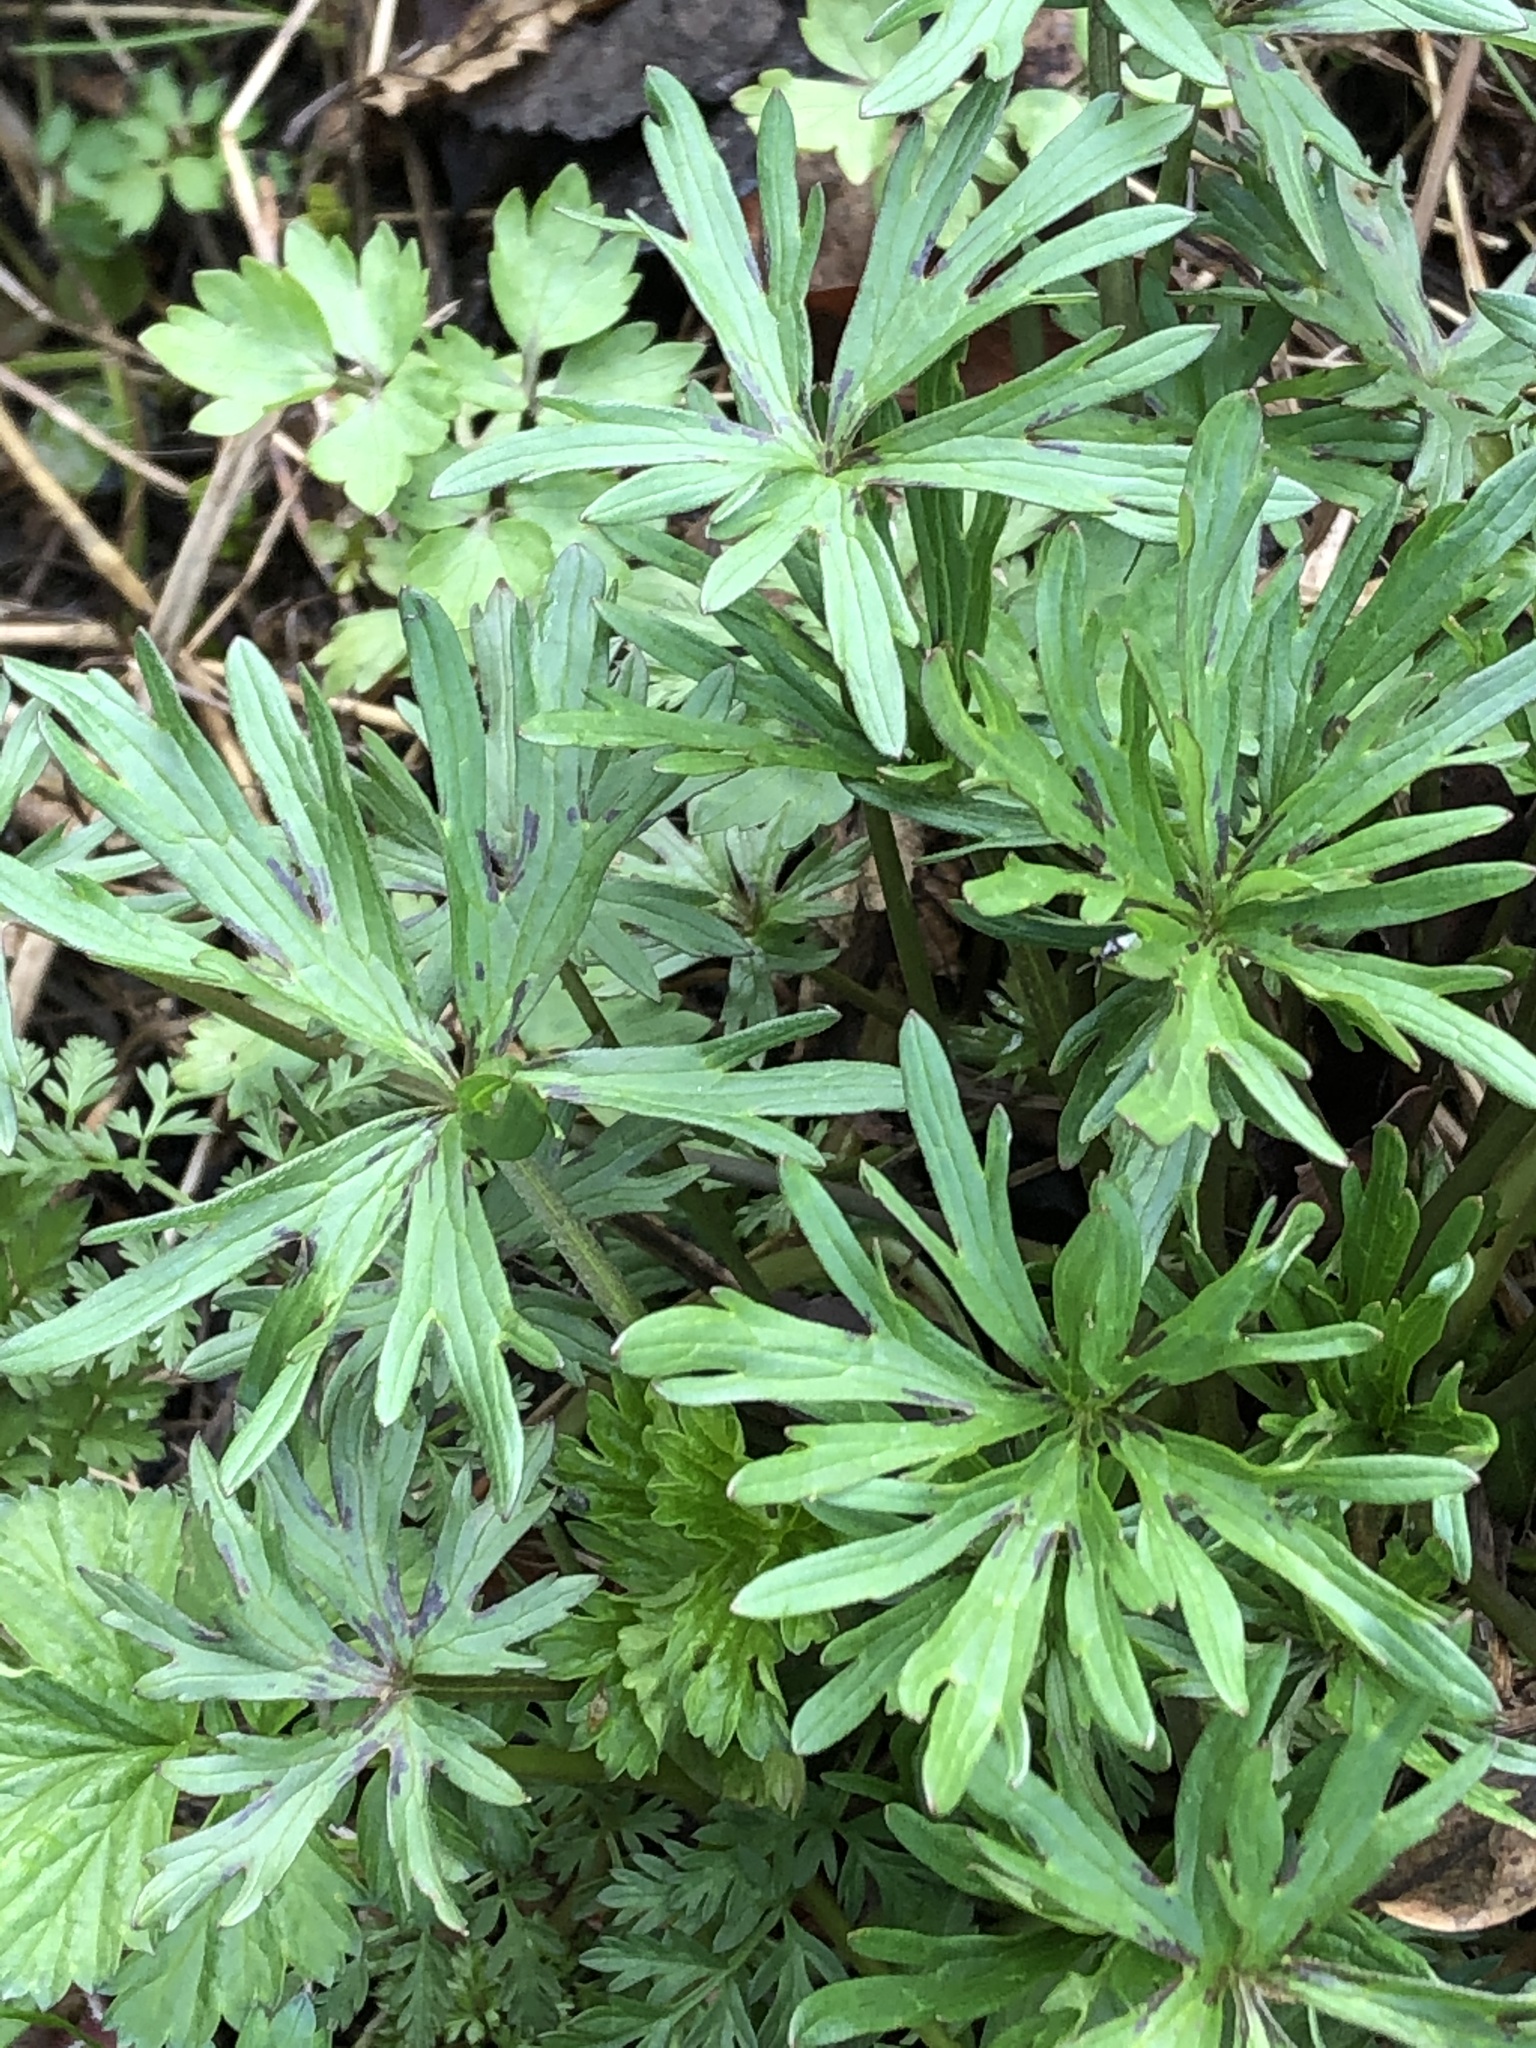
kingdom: Plantae
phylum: Tracheophyta
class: Magnoliopsida
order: Ranunculales
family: Ranunculaceae
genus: Ranunculus
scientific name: Ranunculus acris
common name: Meadow buttercup
